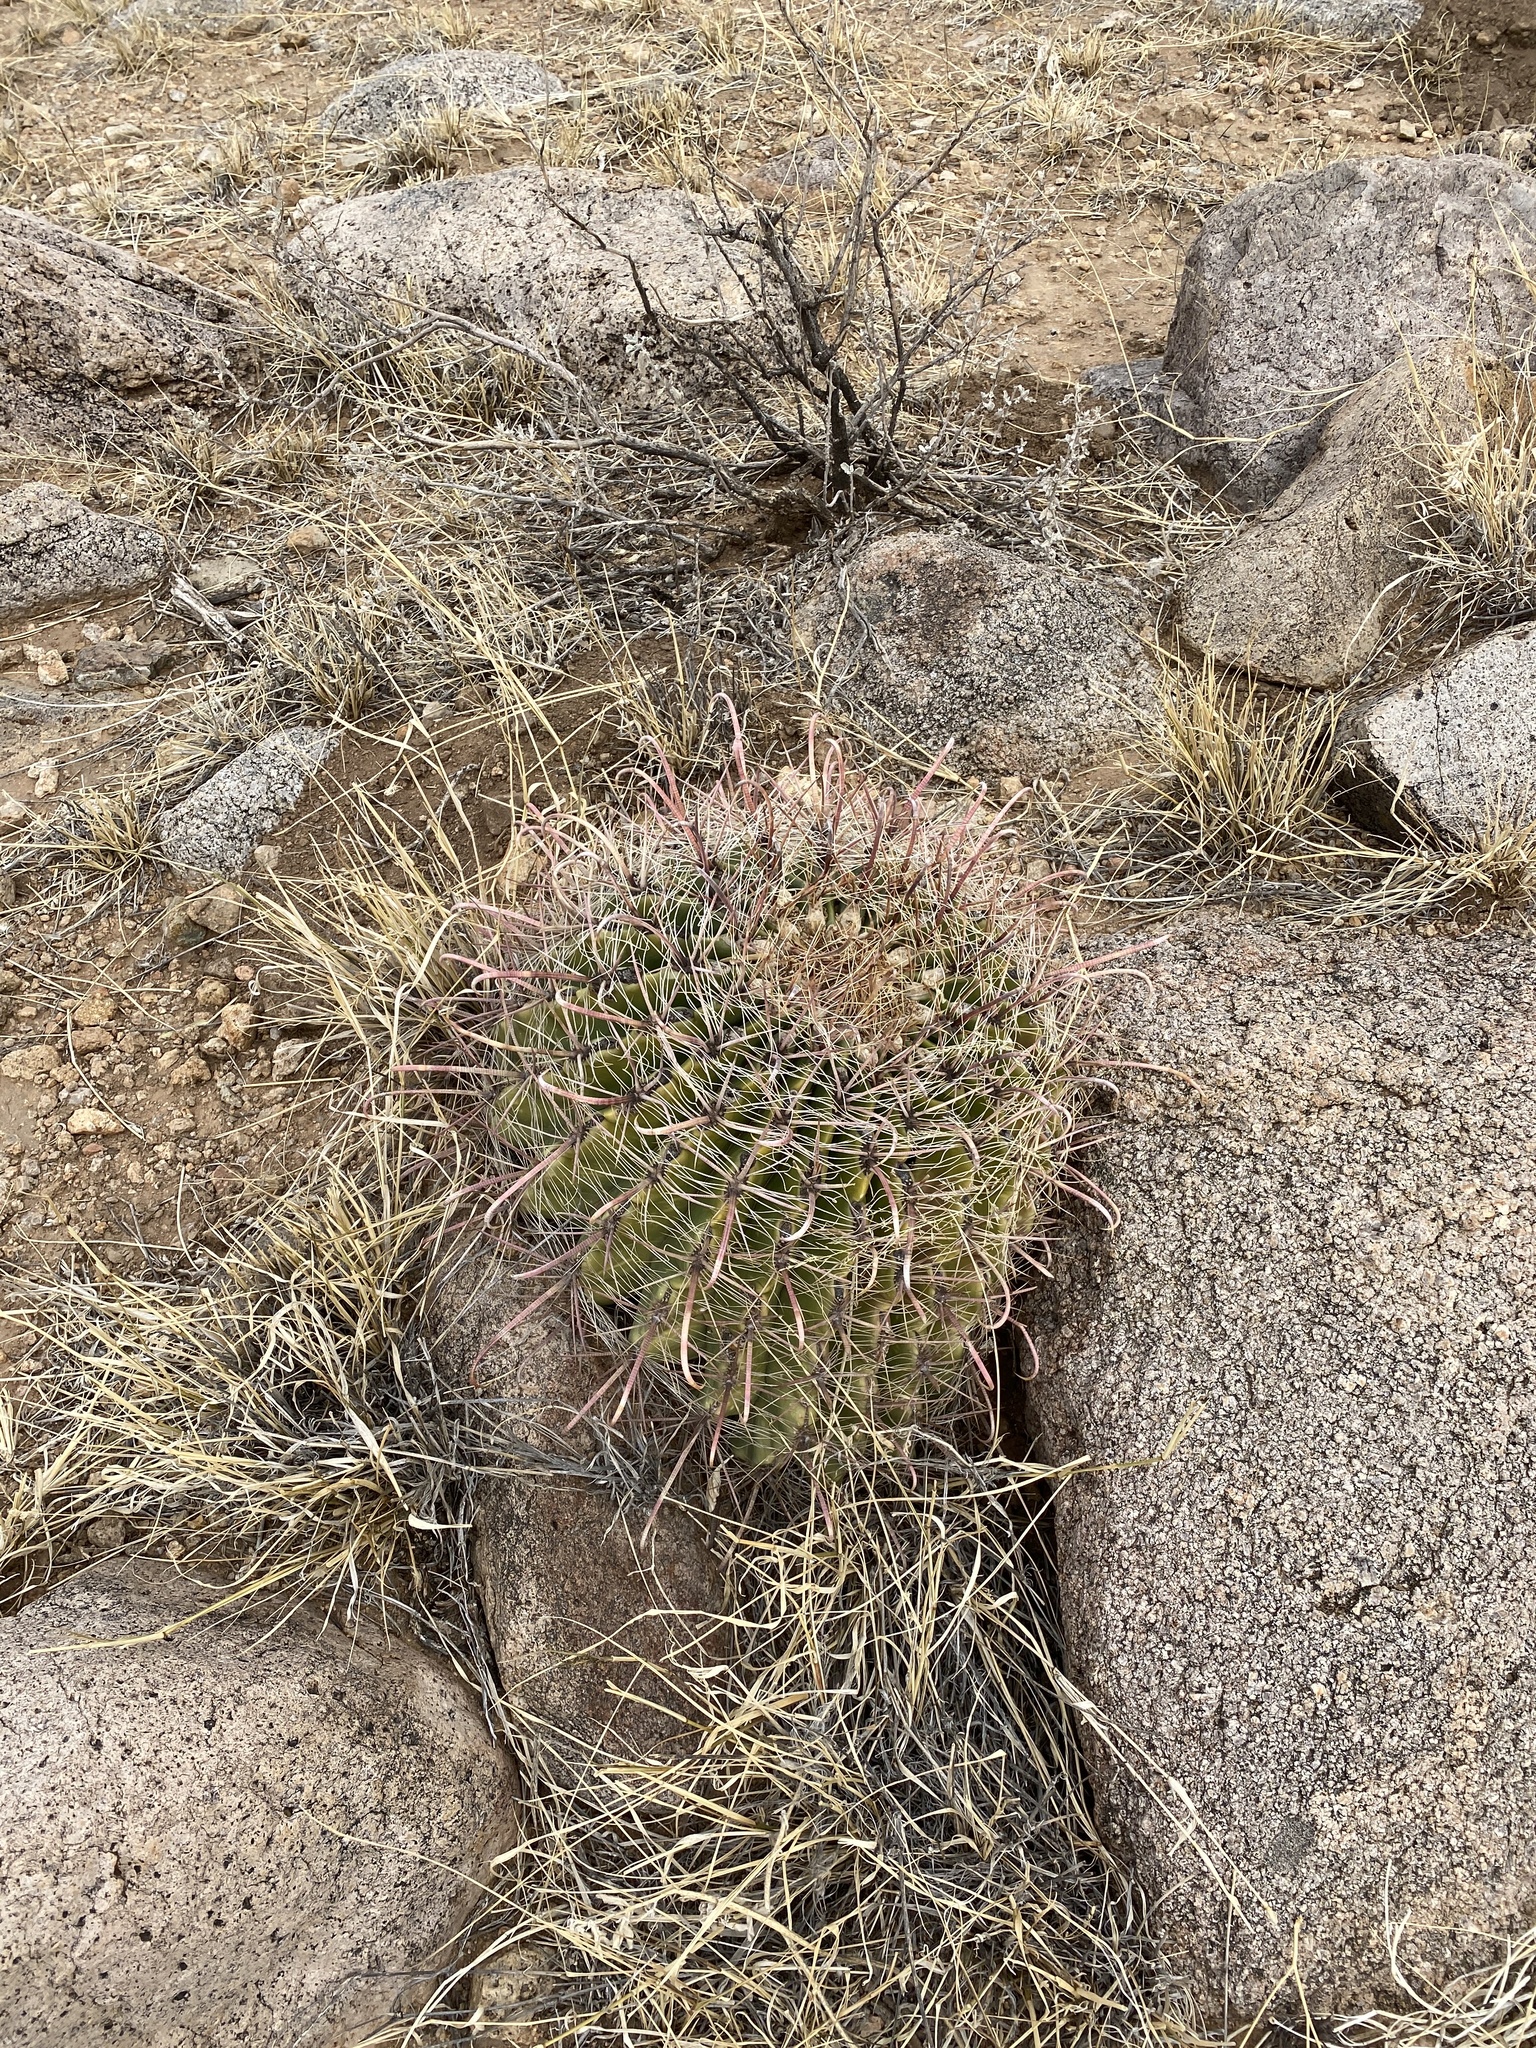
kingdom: Plantae
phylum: Tracheophyta
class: Magnoliopsida
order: Caryophyllales
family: Cactaceae
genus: Ferocactus
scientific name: Ferocactus wislizeni
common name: Candy barrel cactus
